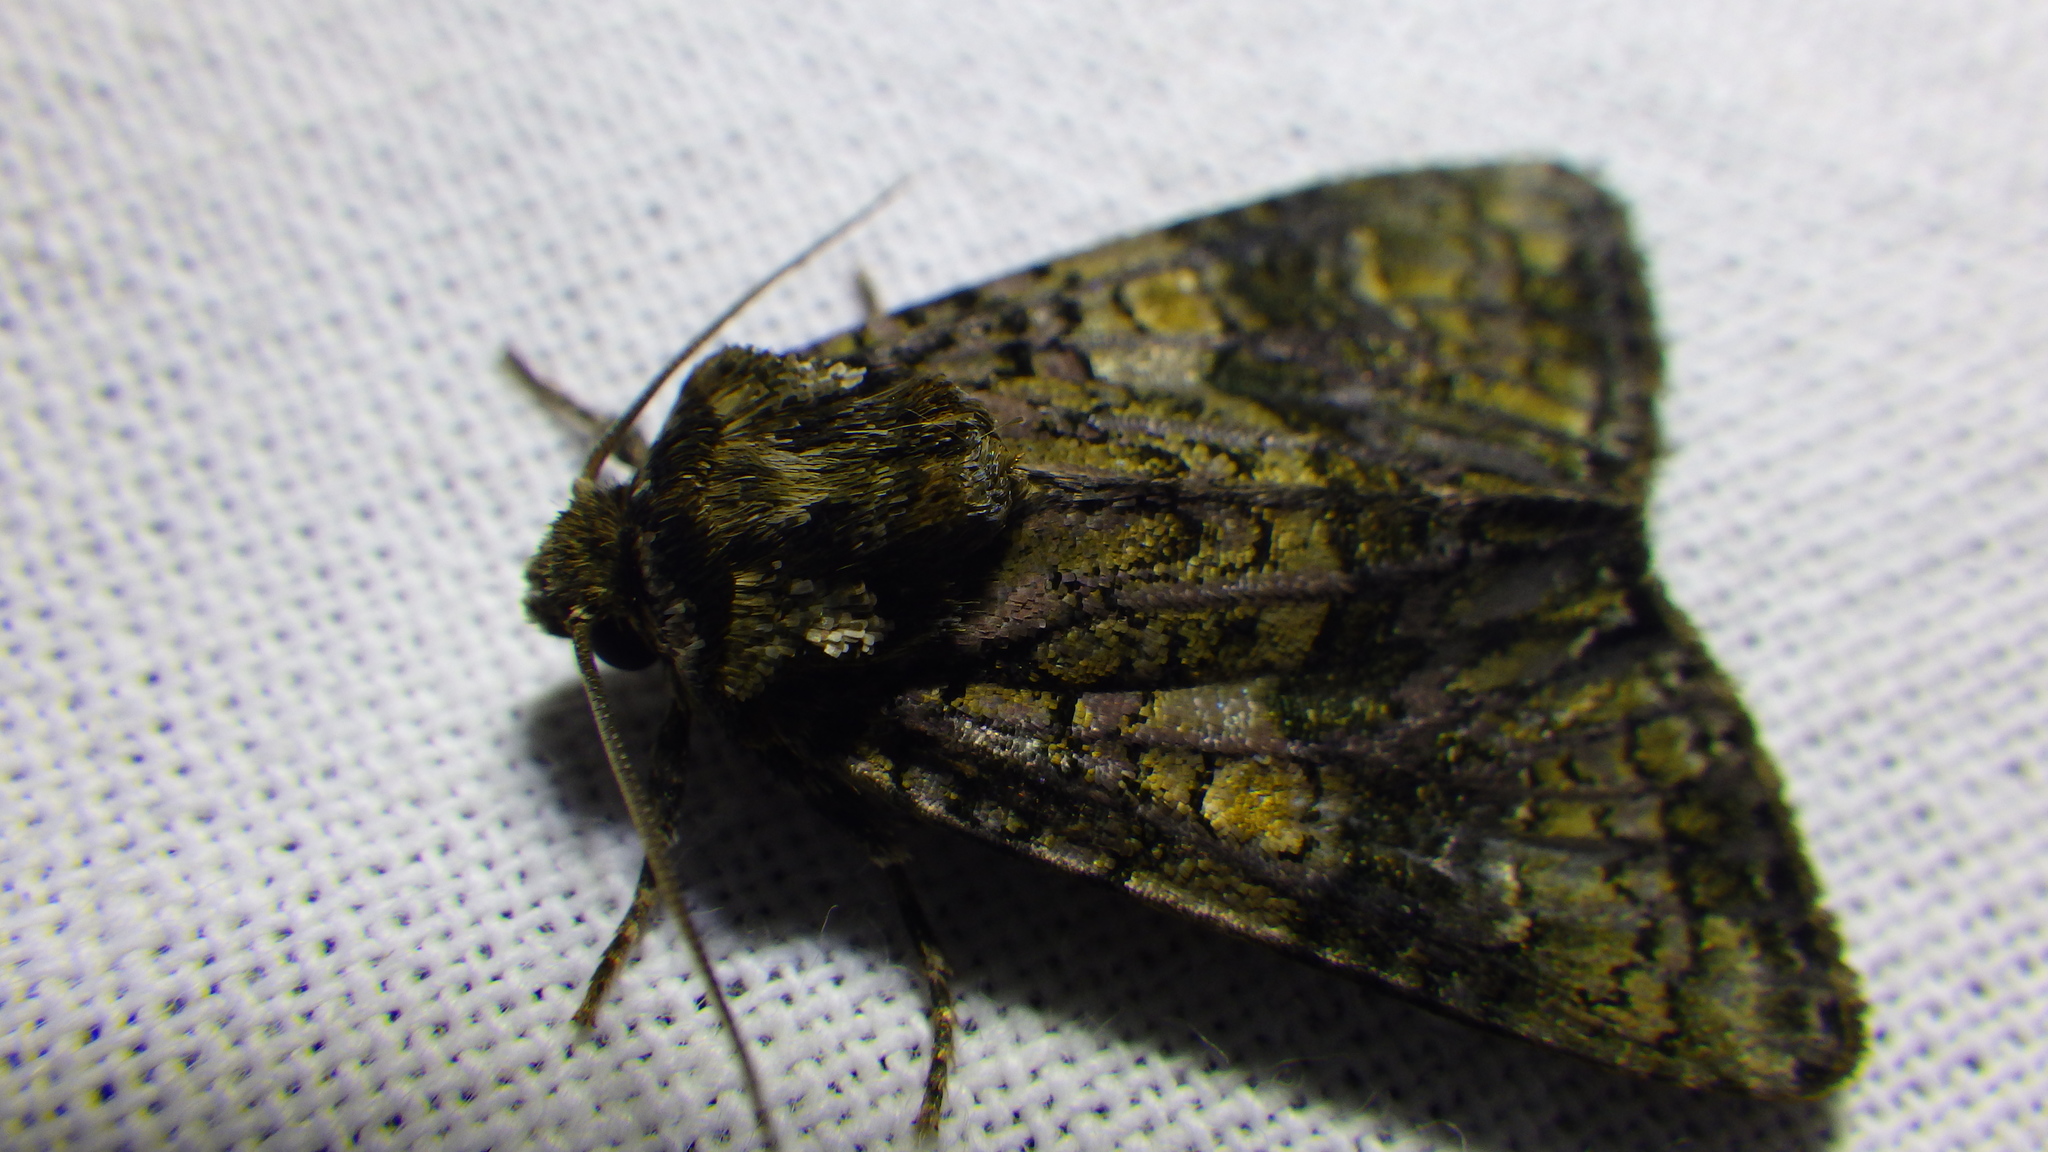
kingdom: Animalia
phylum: Arthropoda
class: Insecta
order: Lepidoptera
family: Noctuidae
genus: Craniophora
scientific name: Craniophora ligustri
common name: Coronet
